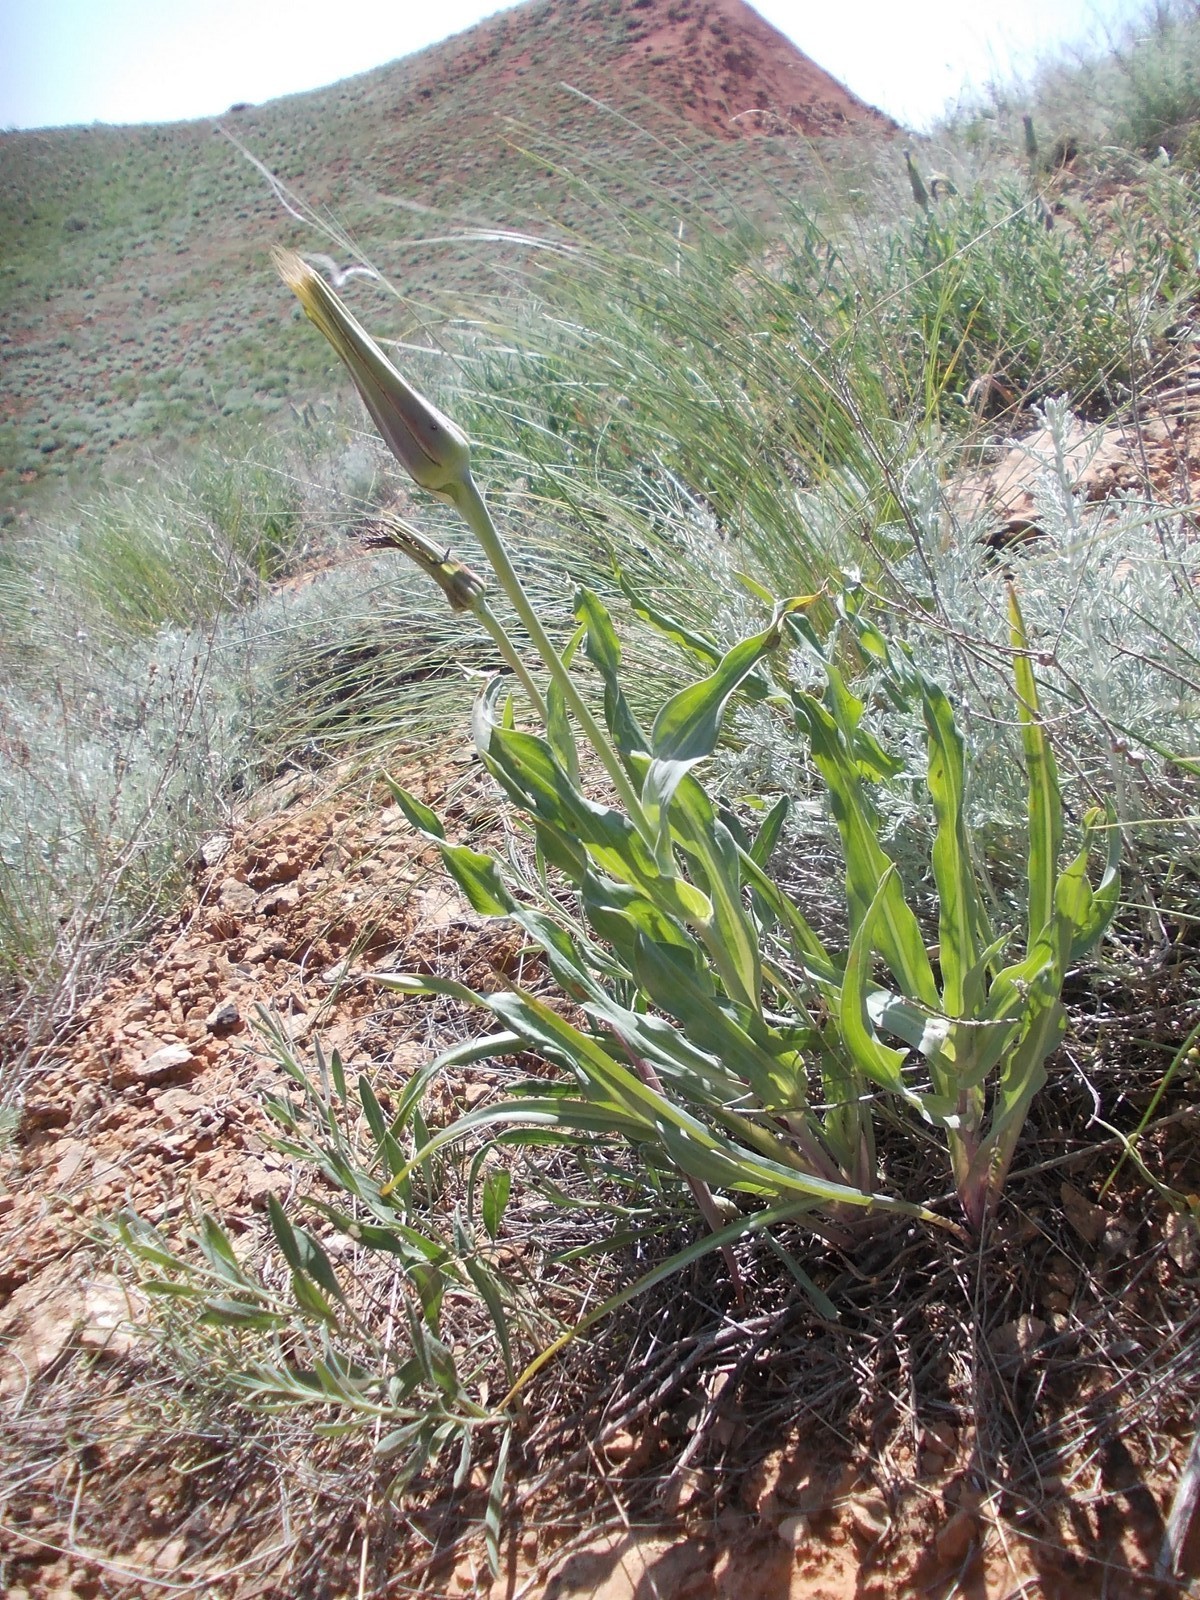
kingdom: Plantae
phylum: Tracheophyta
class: Magnoliopsida
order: Asterales
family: Asteraceae
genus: Tragopogon
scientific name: Tragopogon marginifolius
